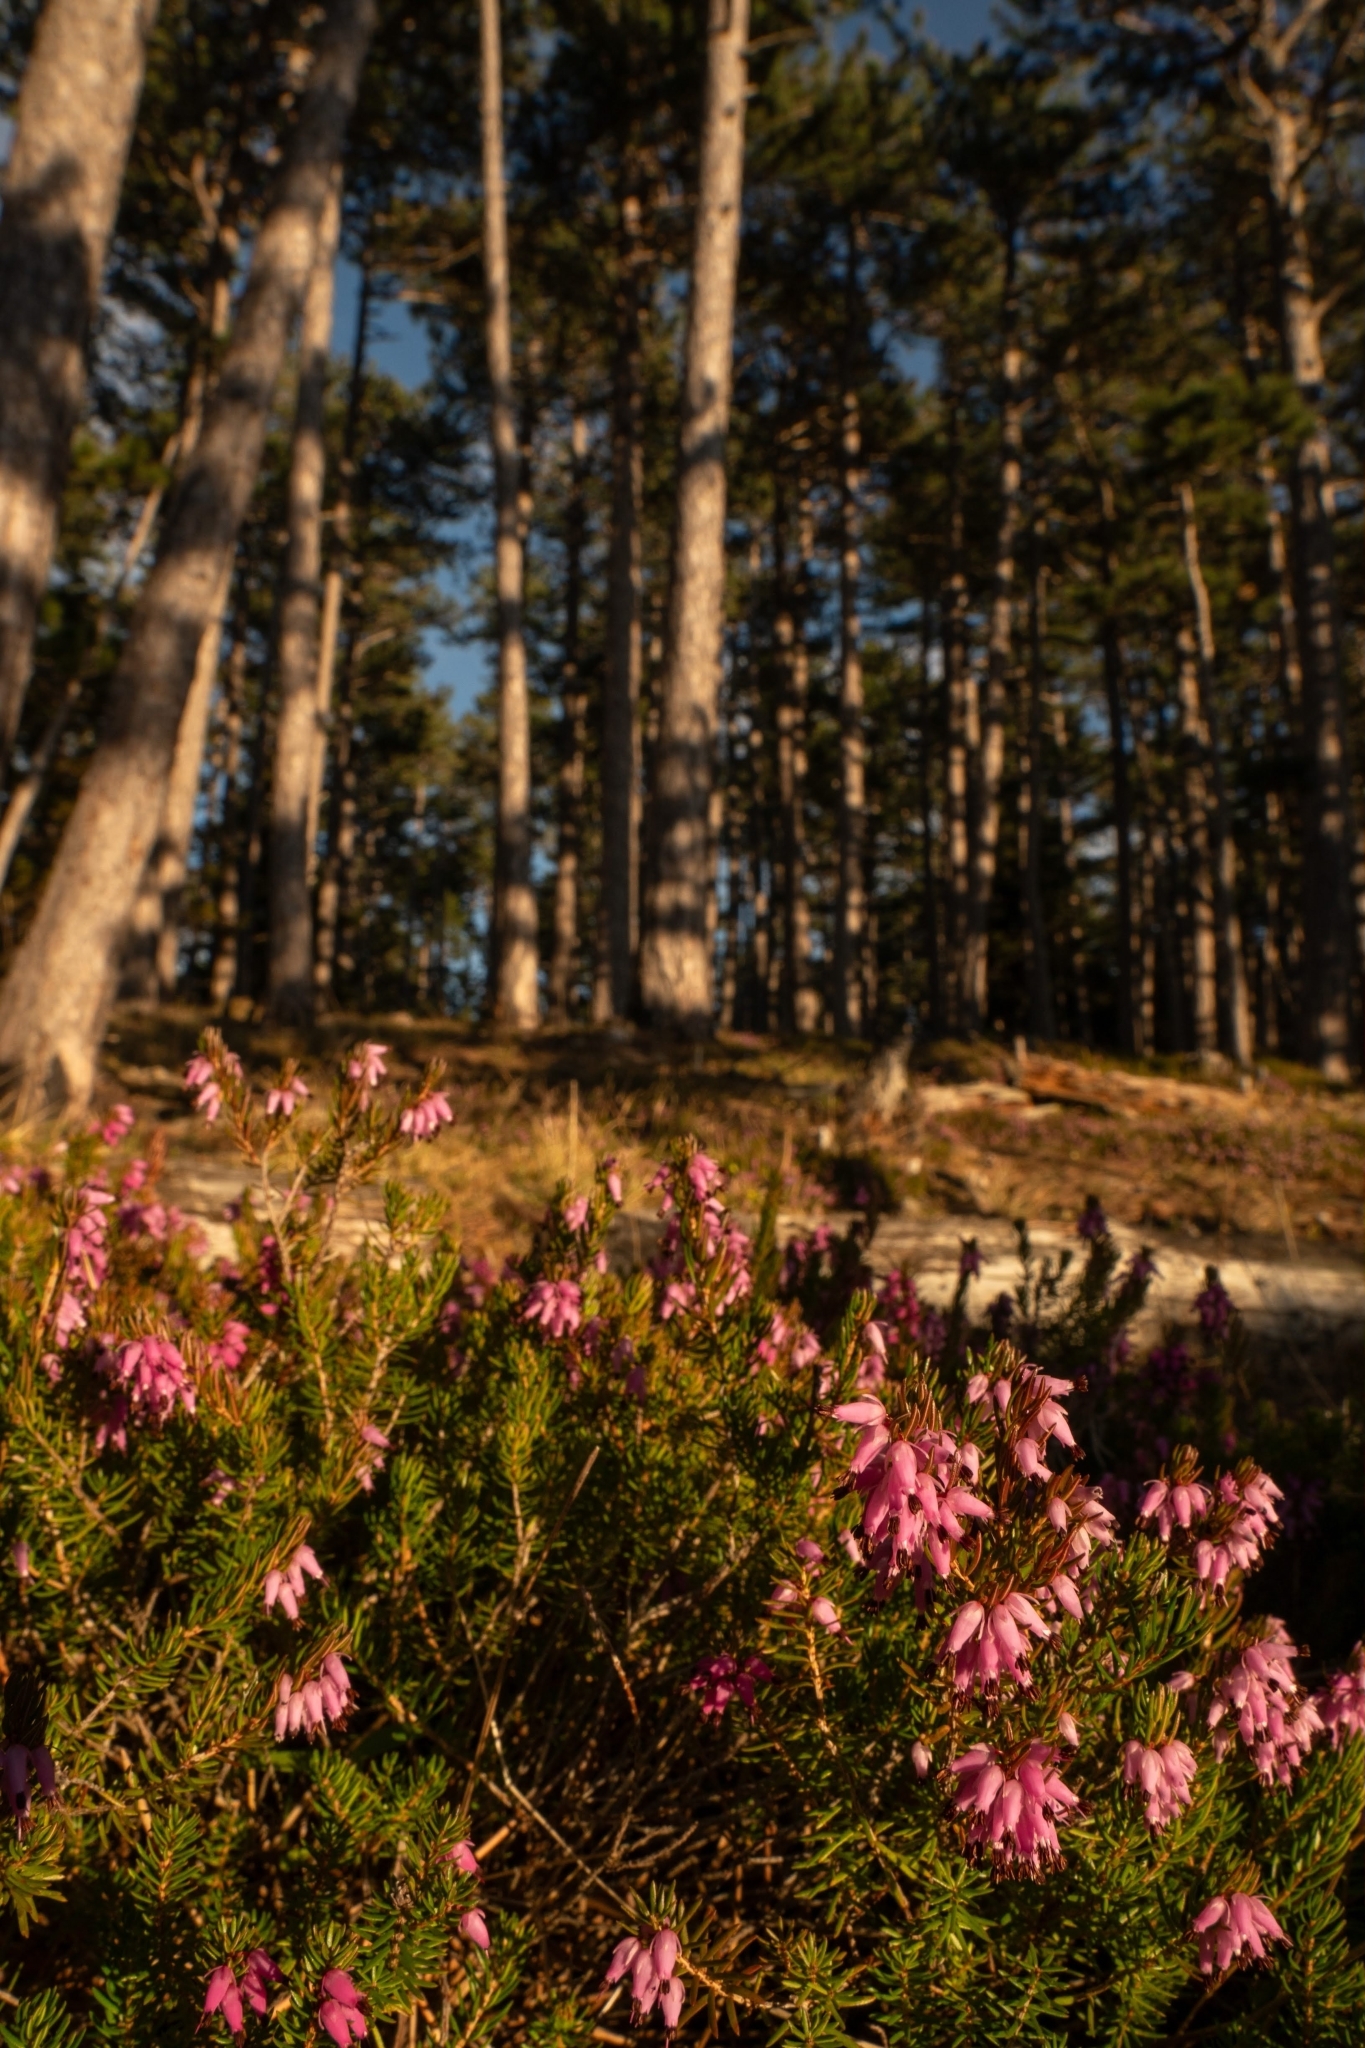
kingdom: Plantae
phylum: Tracheophyta
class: Magnoliopsida
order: Ericales
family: Ericaceae
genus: Erica
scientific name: Erica carnea
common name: Winter heath
